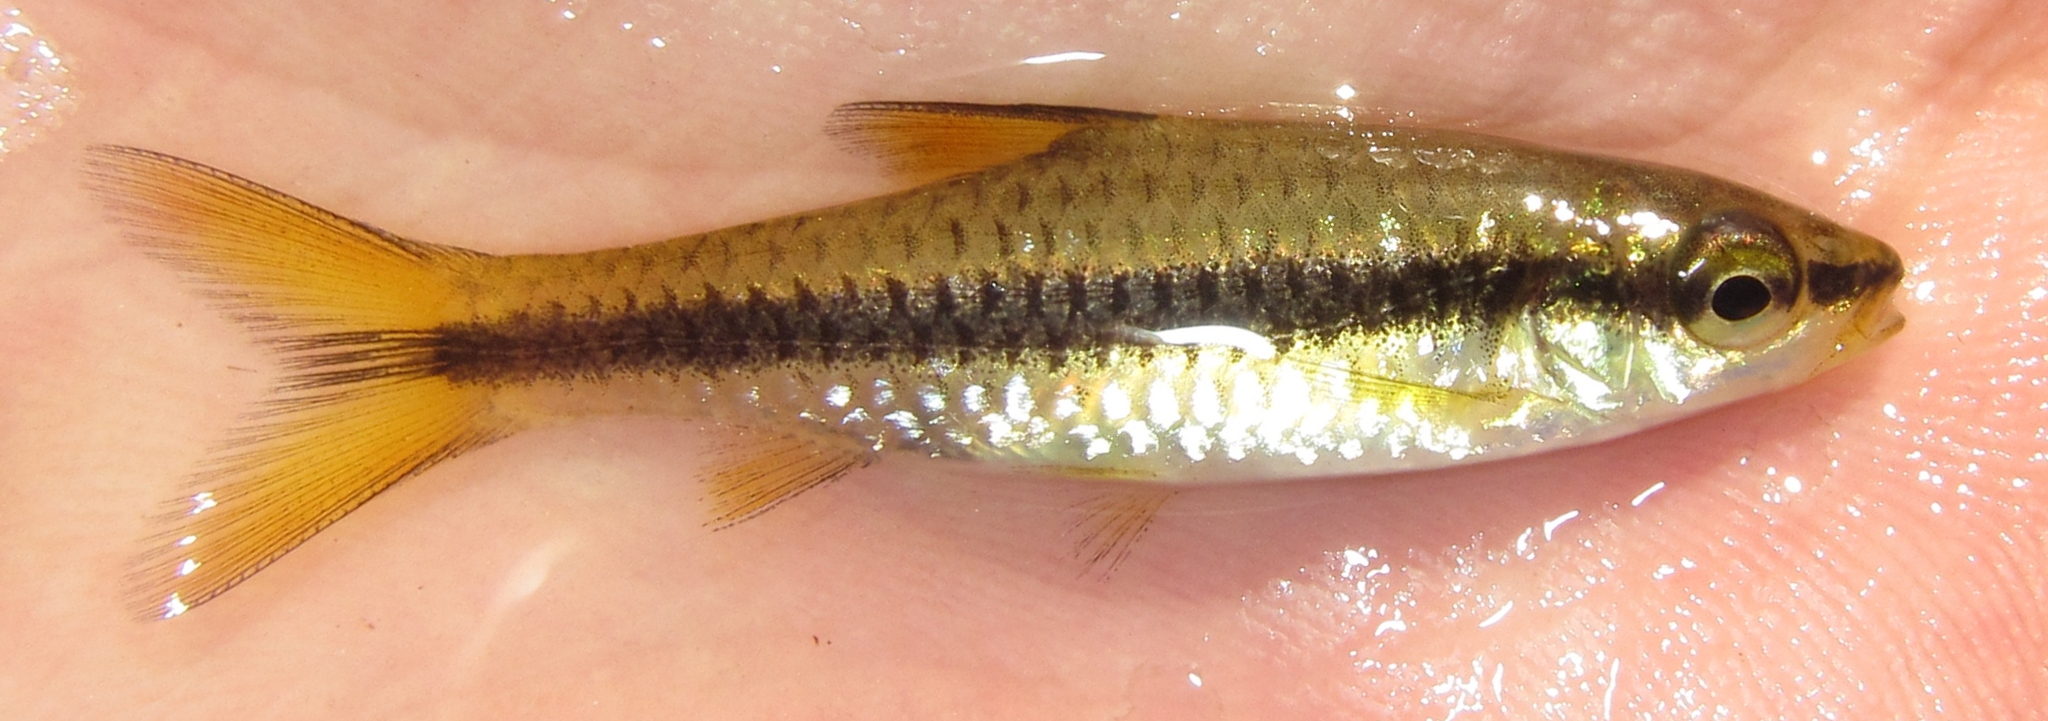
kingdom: Animalia
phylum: Chordata
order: Cypriniformes
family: Cyprinidae
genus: Enteromius
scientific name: Enteromius eutaenia
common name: Orangefin barb
